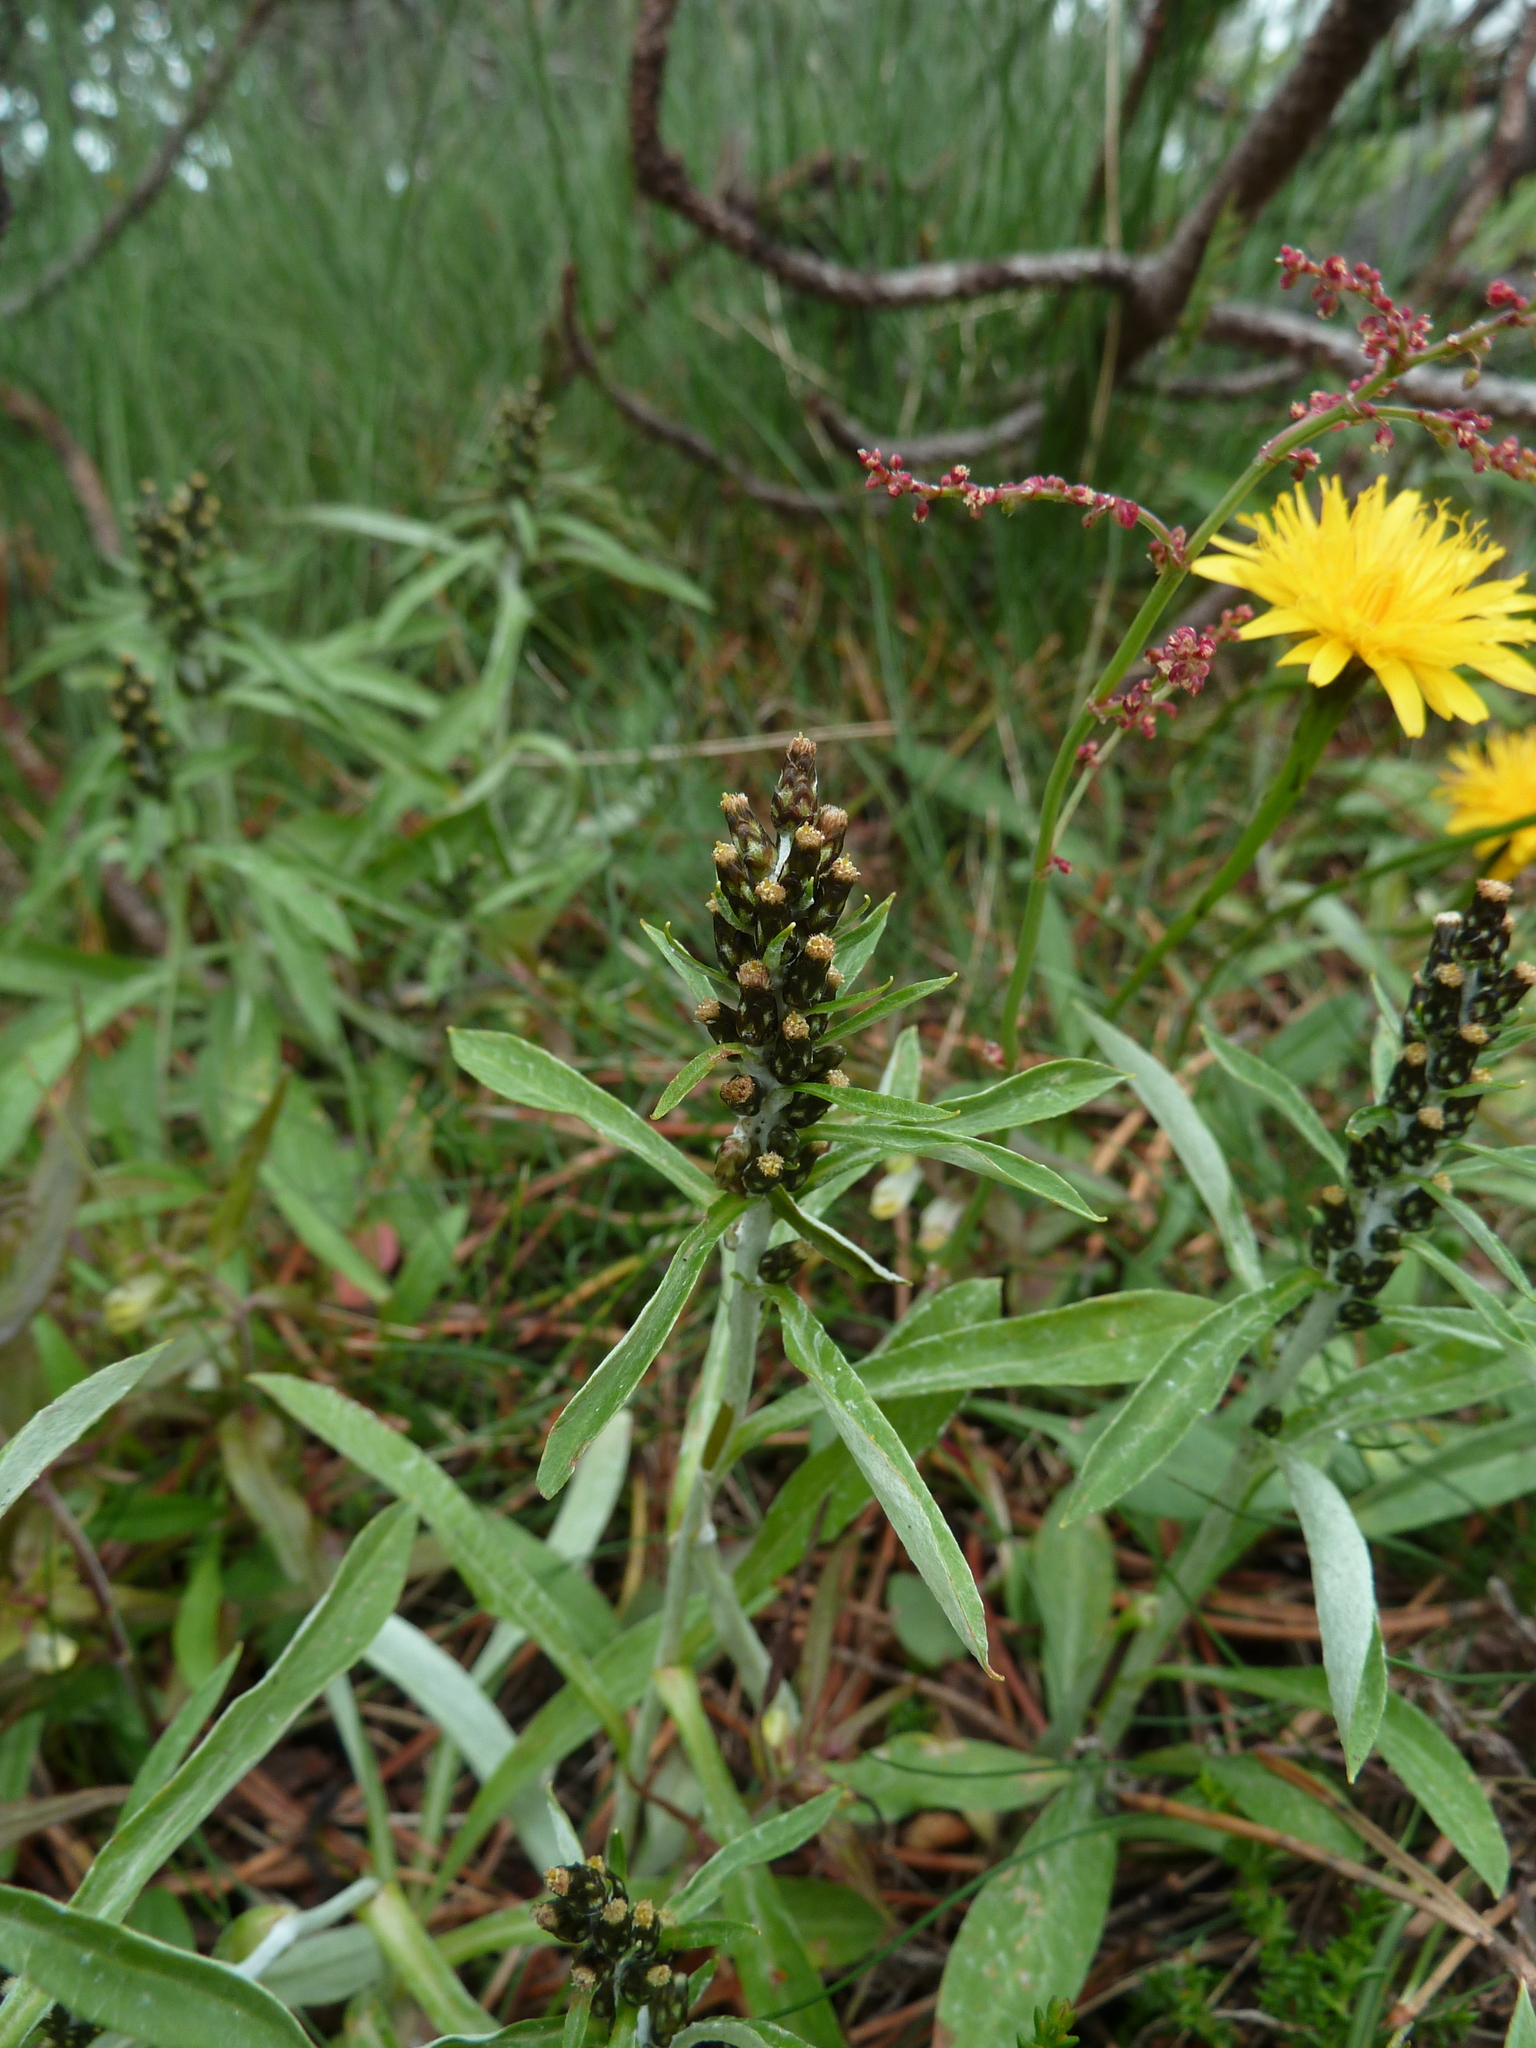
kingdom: Plantae
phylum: Tracheophyta
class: Magnoliopsida
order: Asterales
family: Asteraceae
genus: Omalotheca
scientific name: Omalotheca sylvatica
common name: Heath cudweed
